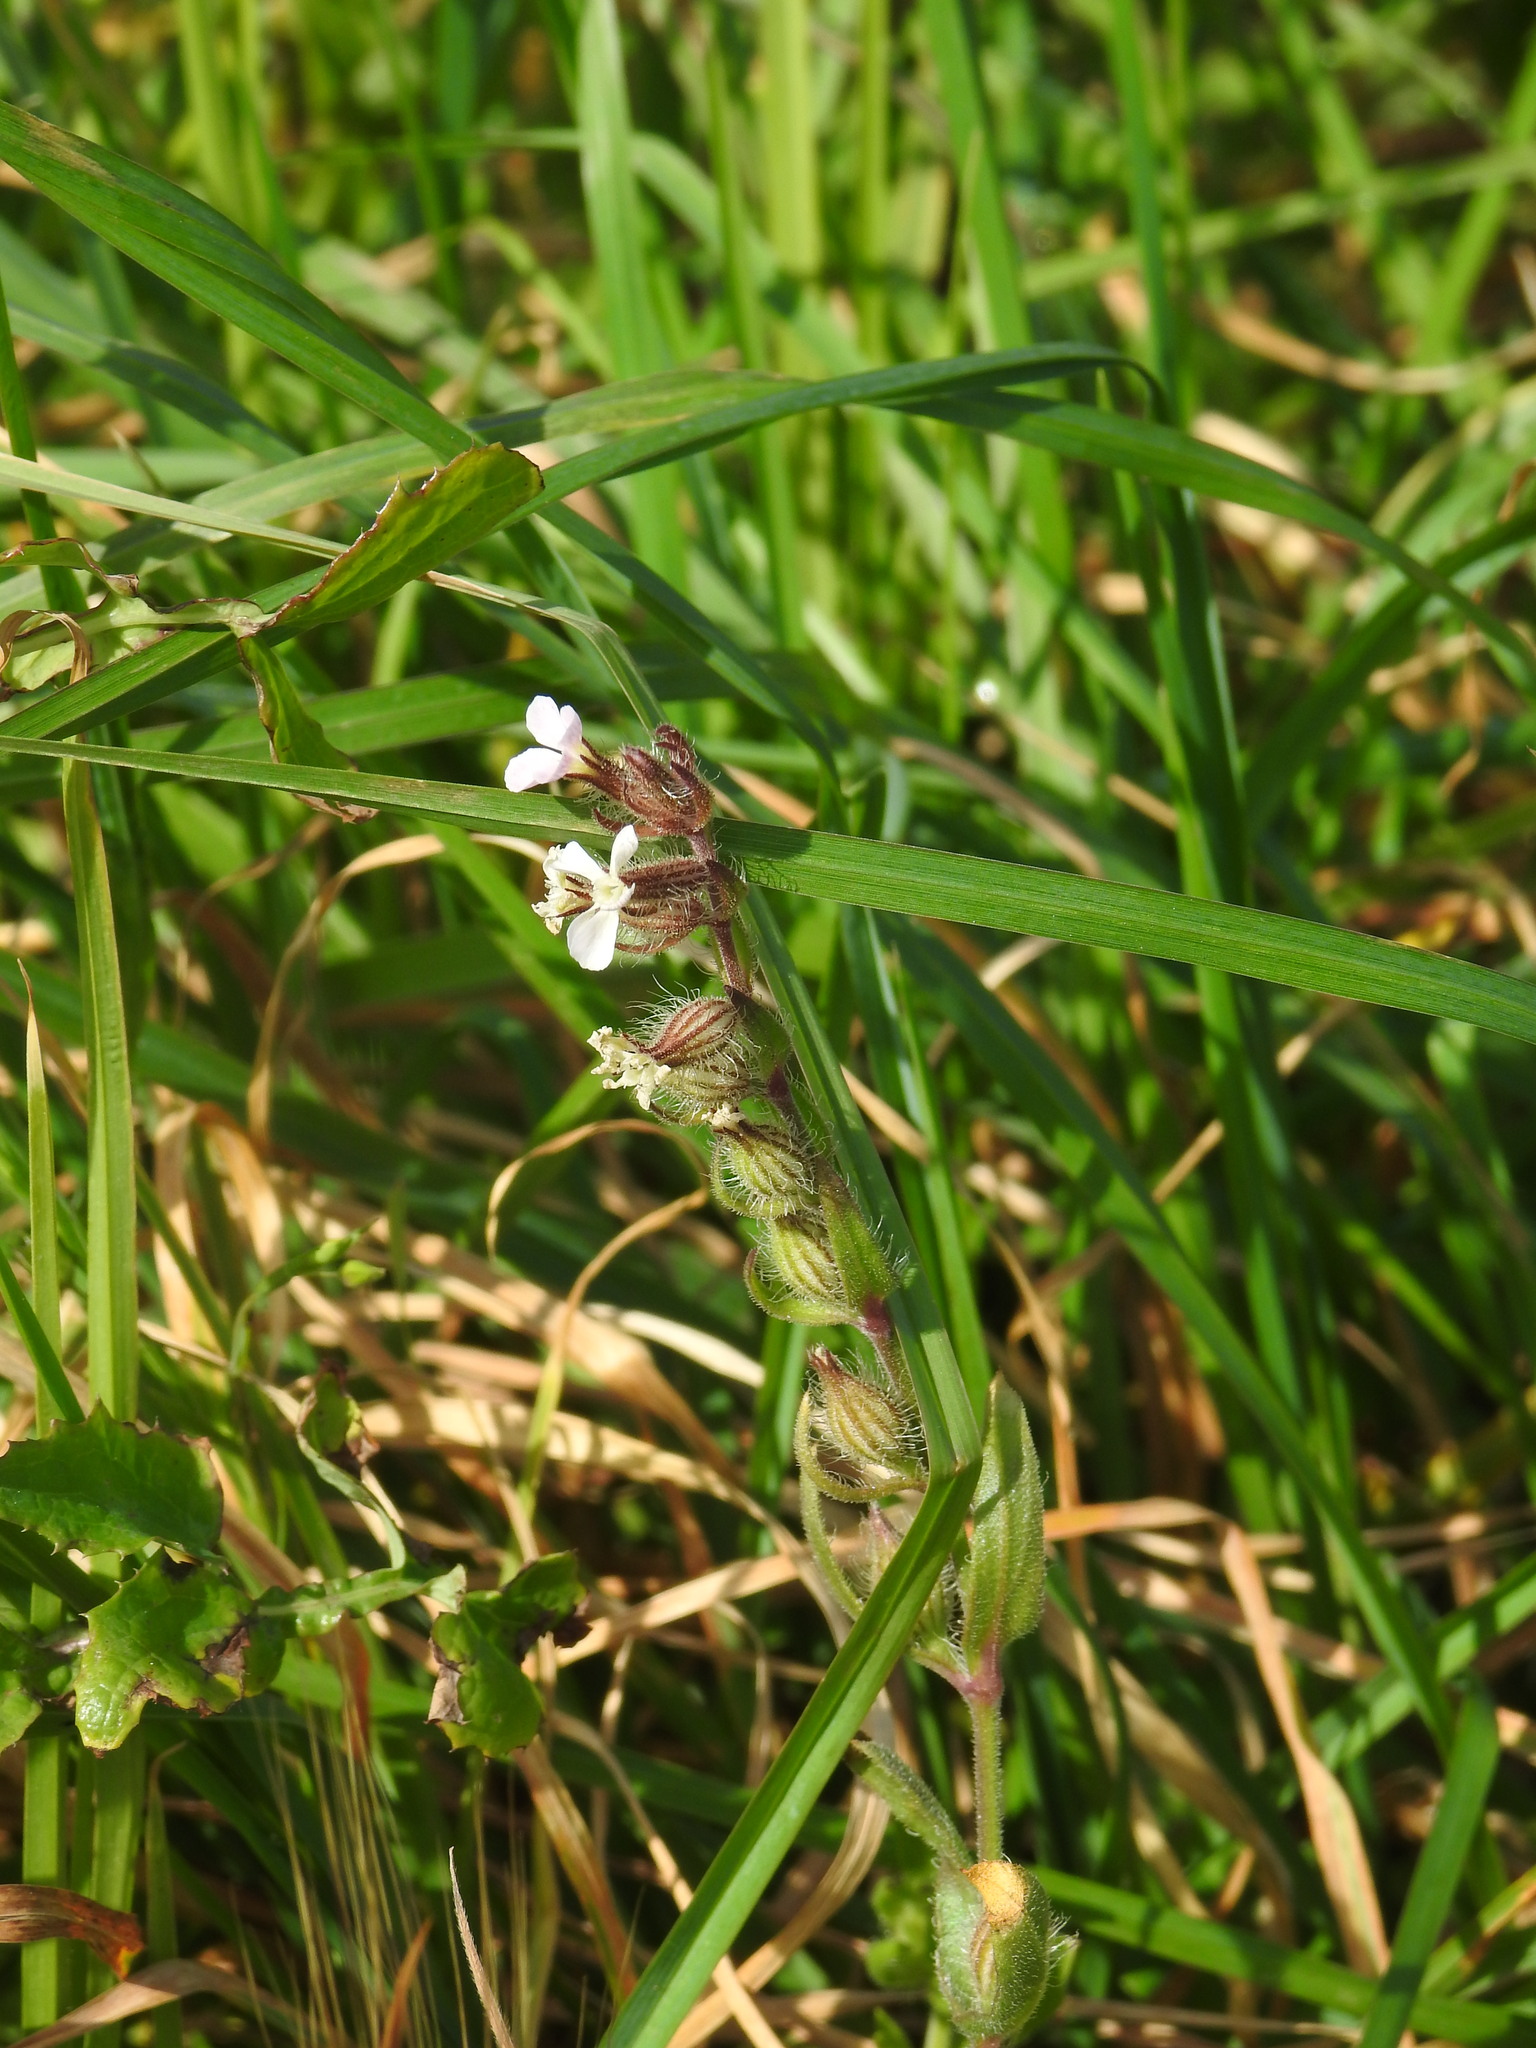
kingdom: Plantae
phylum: Tracheophyta
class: Magnoliopsida
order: Caryophyllales
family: Caryophyllaceae
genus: Silene
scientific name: Silene gallica
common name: Small-flowered catchfly
